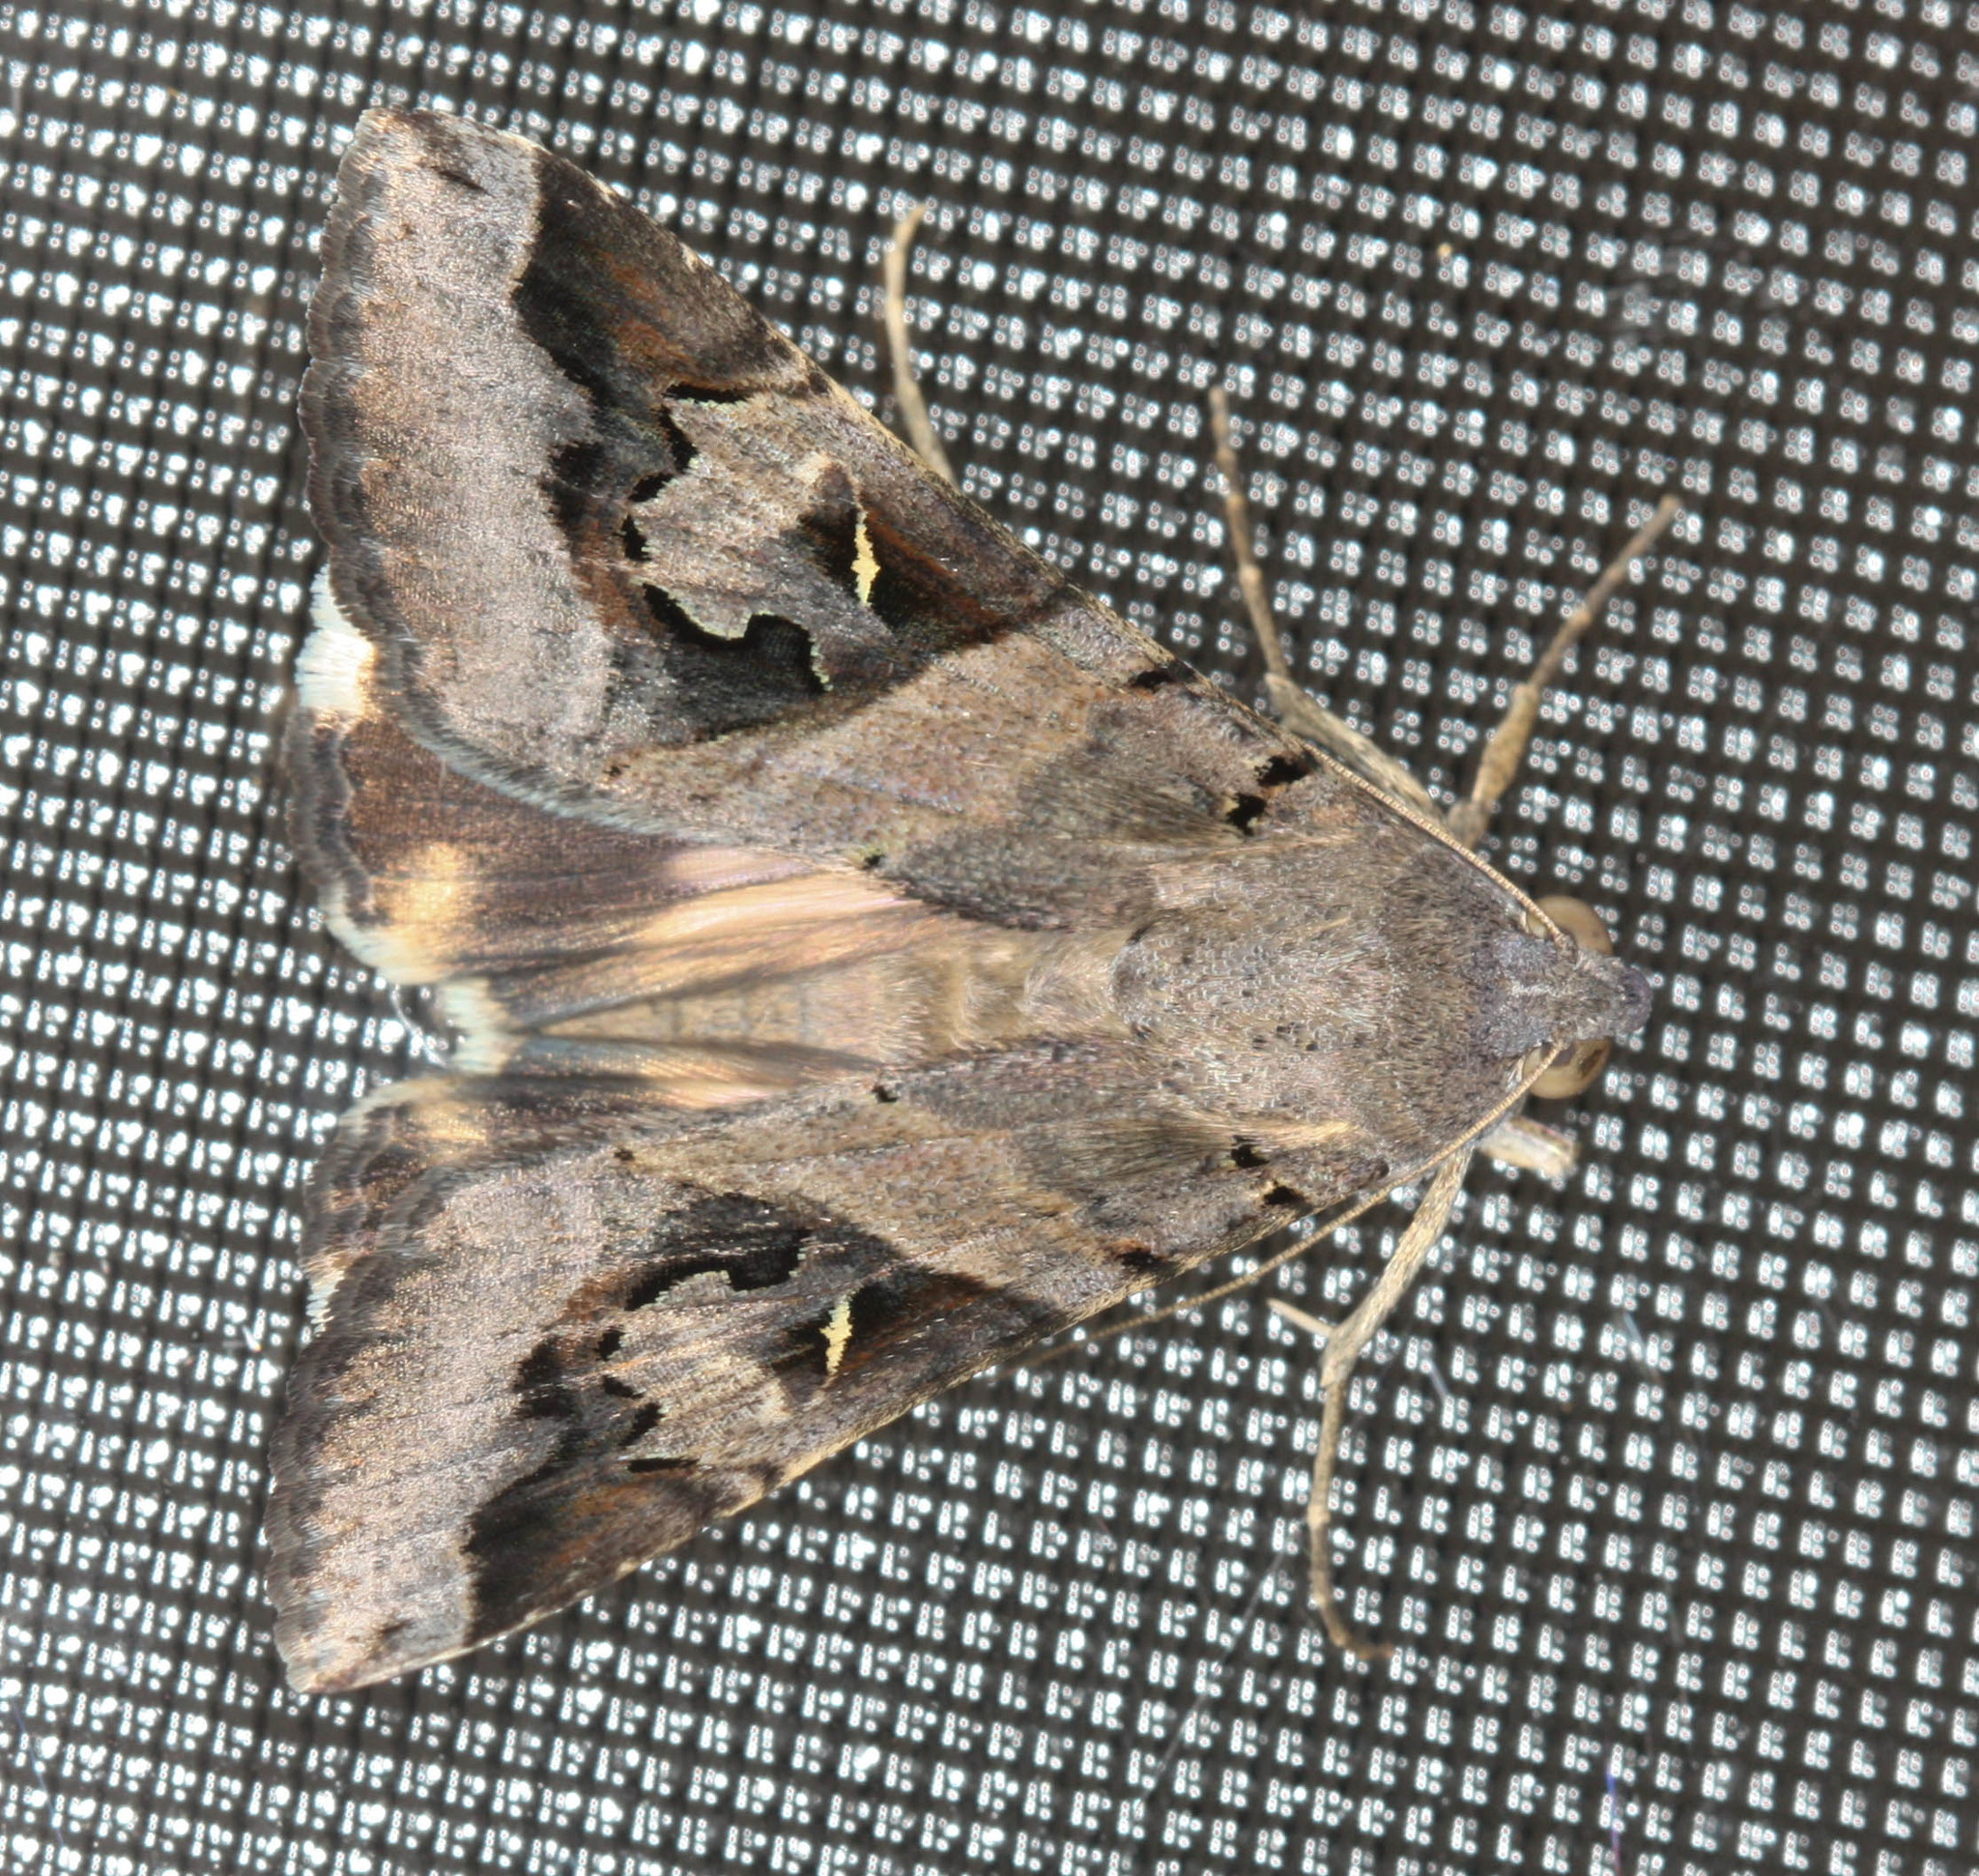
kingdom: Animalia
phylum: Arthropoda
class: Insecta
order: Lepidoptera
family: Erebidae
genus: Melipotis
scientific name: Melipotis indomita
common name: Moth
